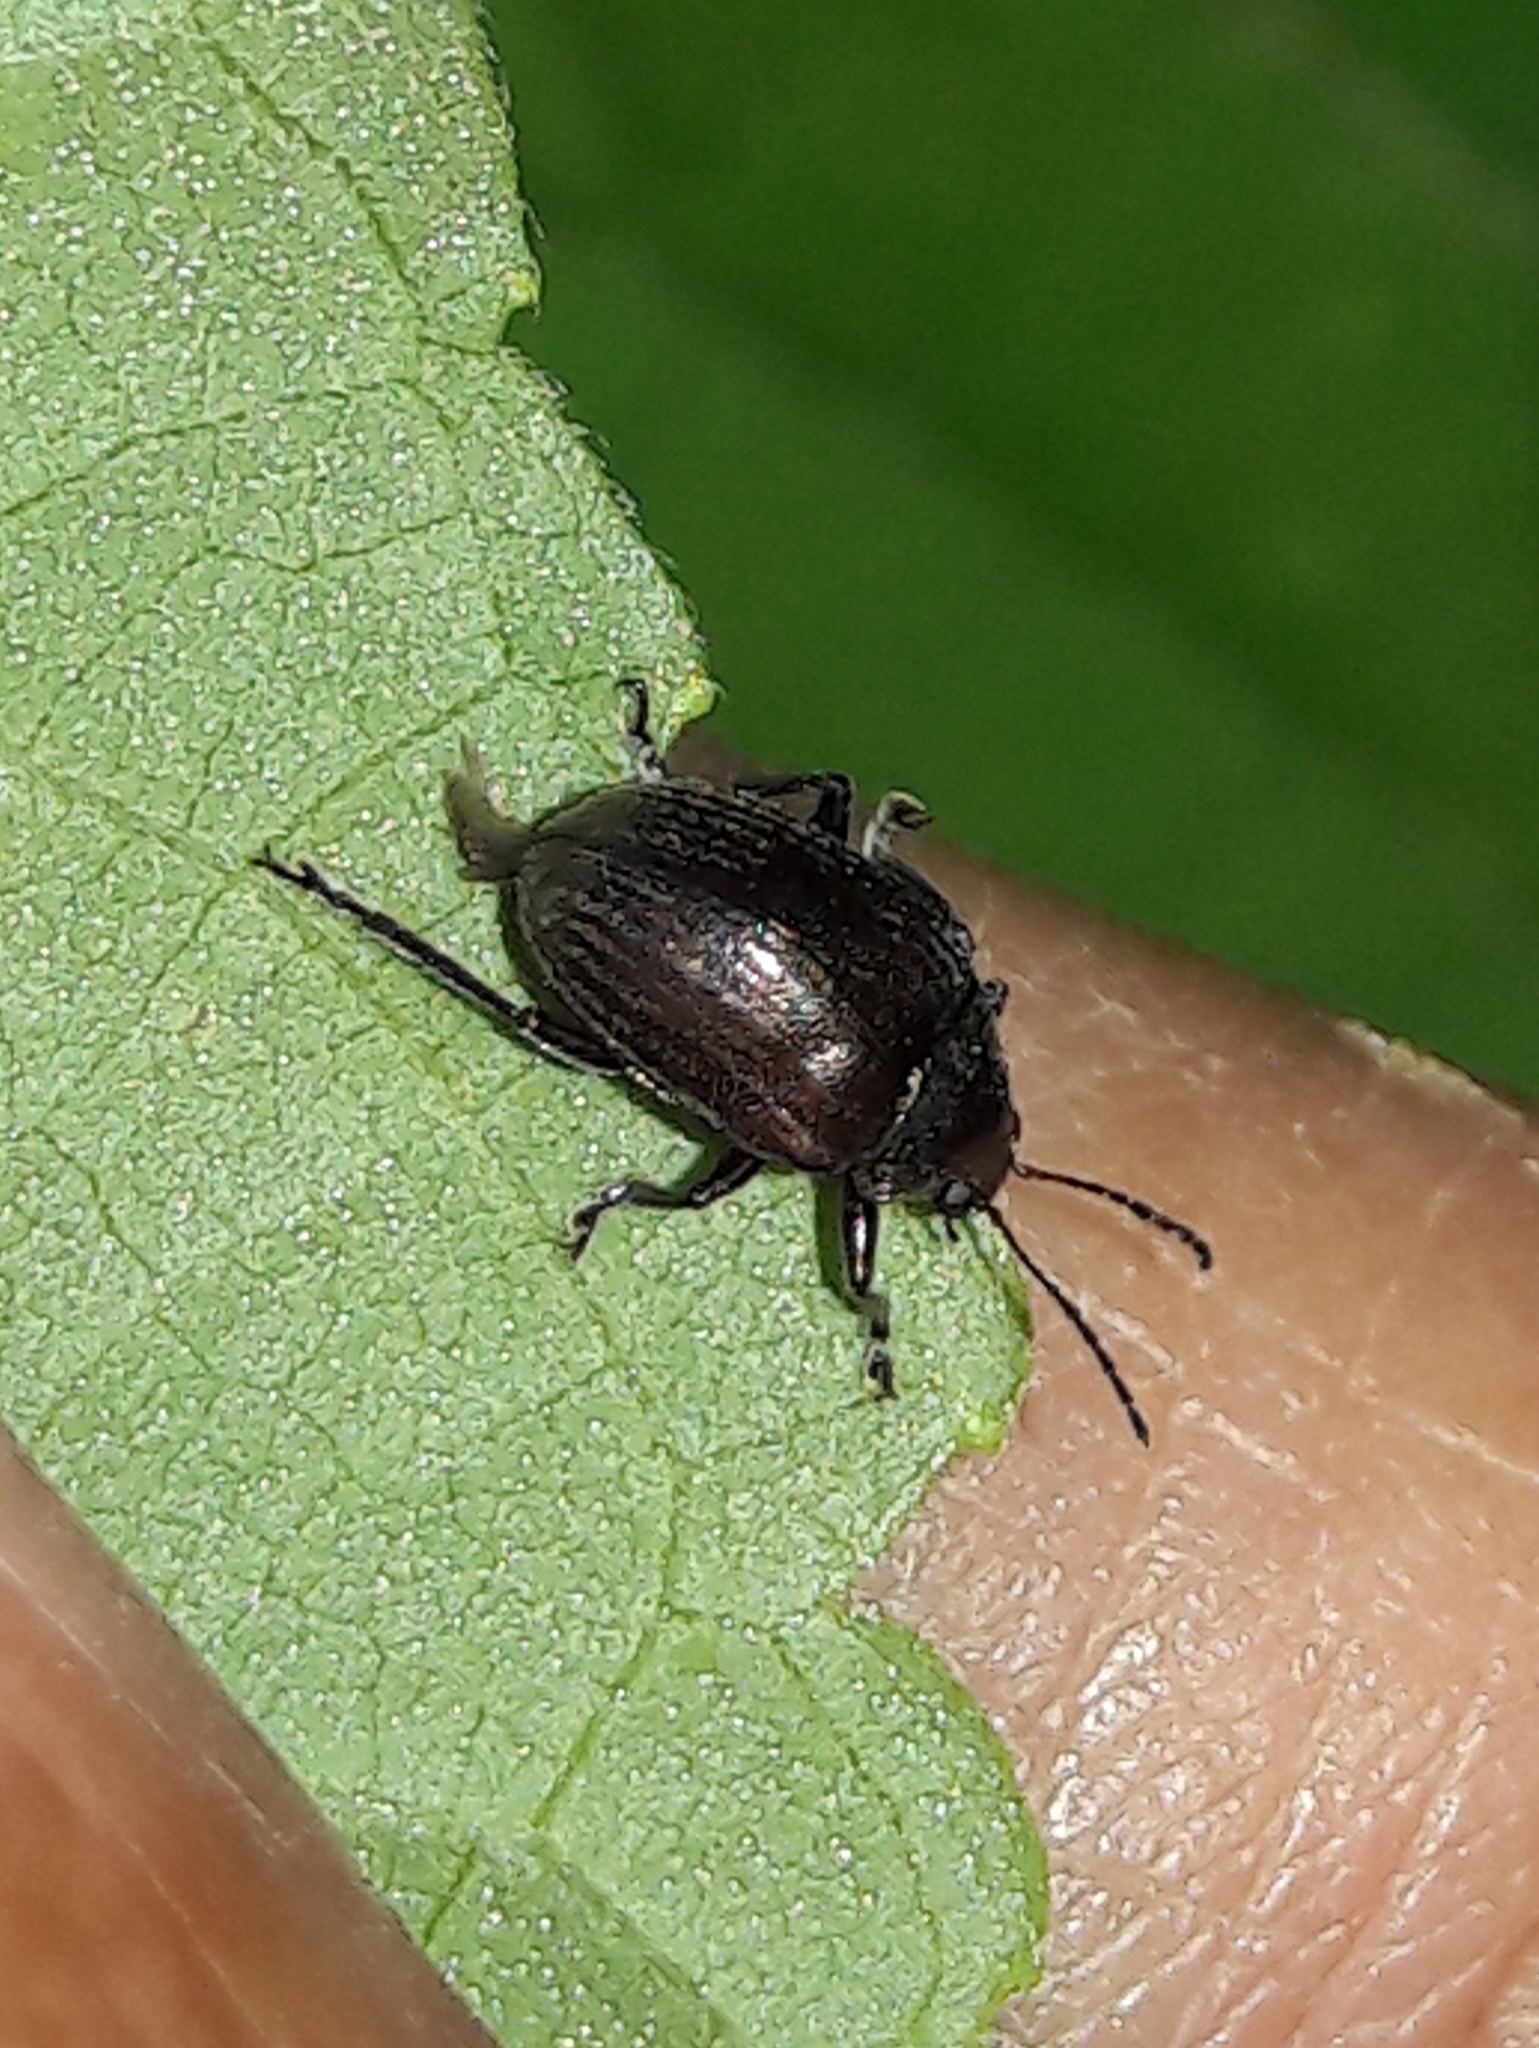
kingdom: Animalia
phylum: Arthropoda
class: Insecta
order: Coleoptera
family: Chrysomelidae
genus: Isolepronota
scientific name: Isolepronota
